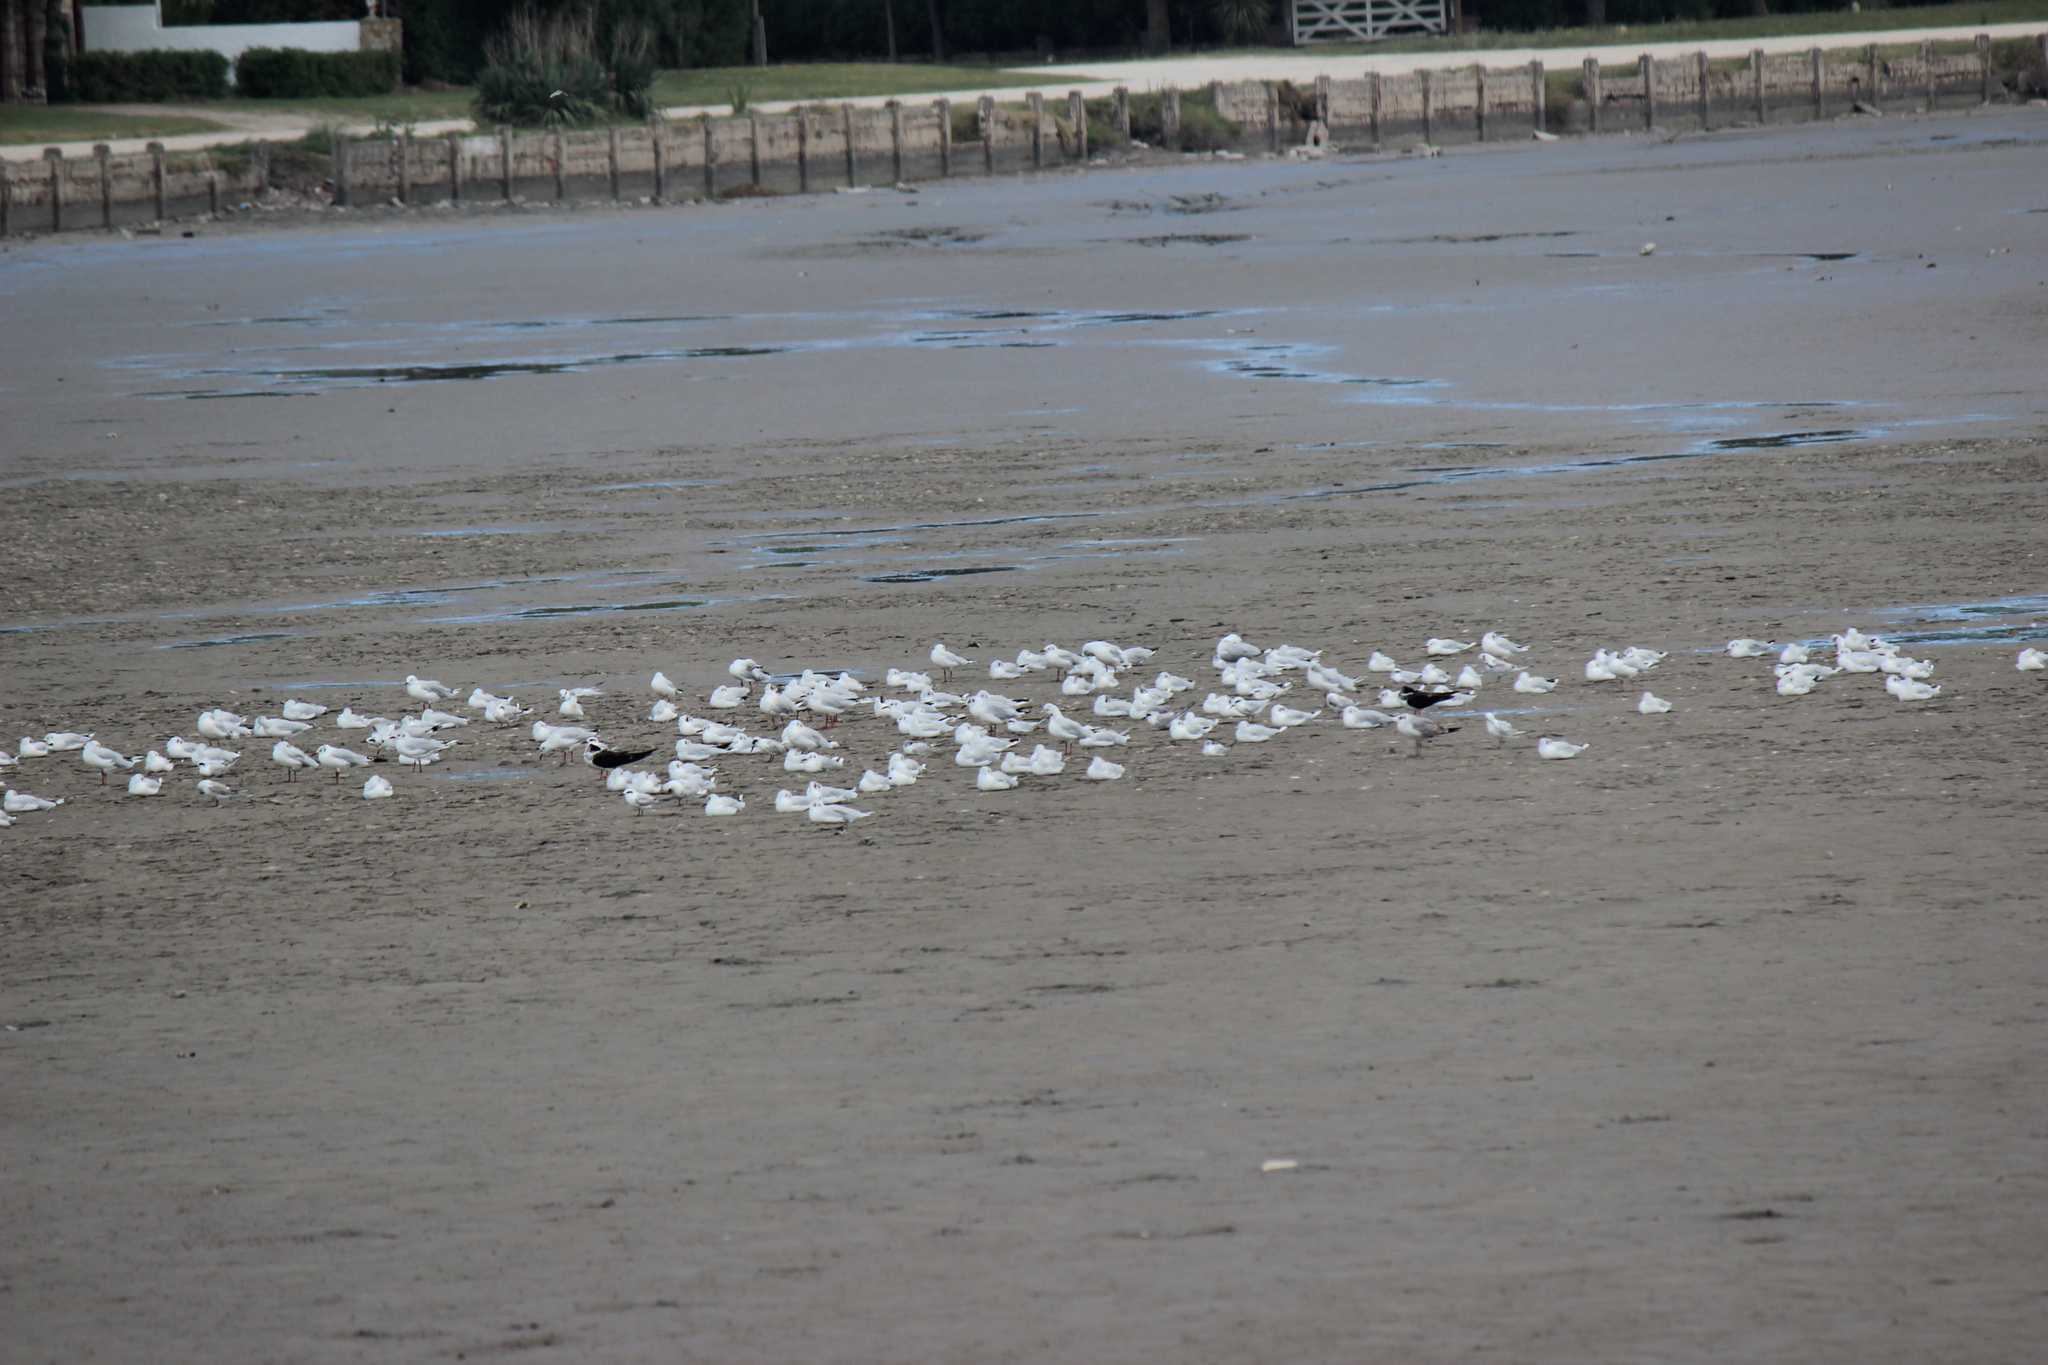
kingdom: Animalia
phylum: Chordata
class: Aves
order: Charadriiformes
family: Laridae
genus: Rynchops
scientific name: Rynchops niger
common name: Black skimmer
